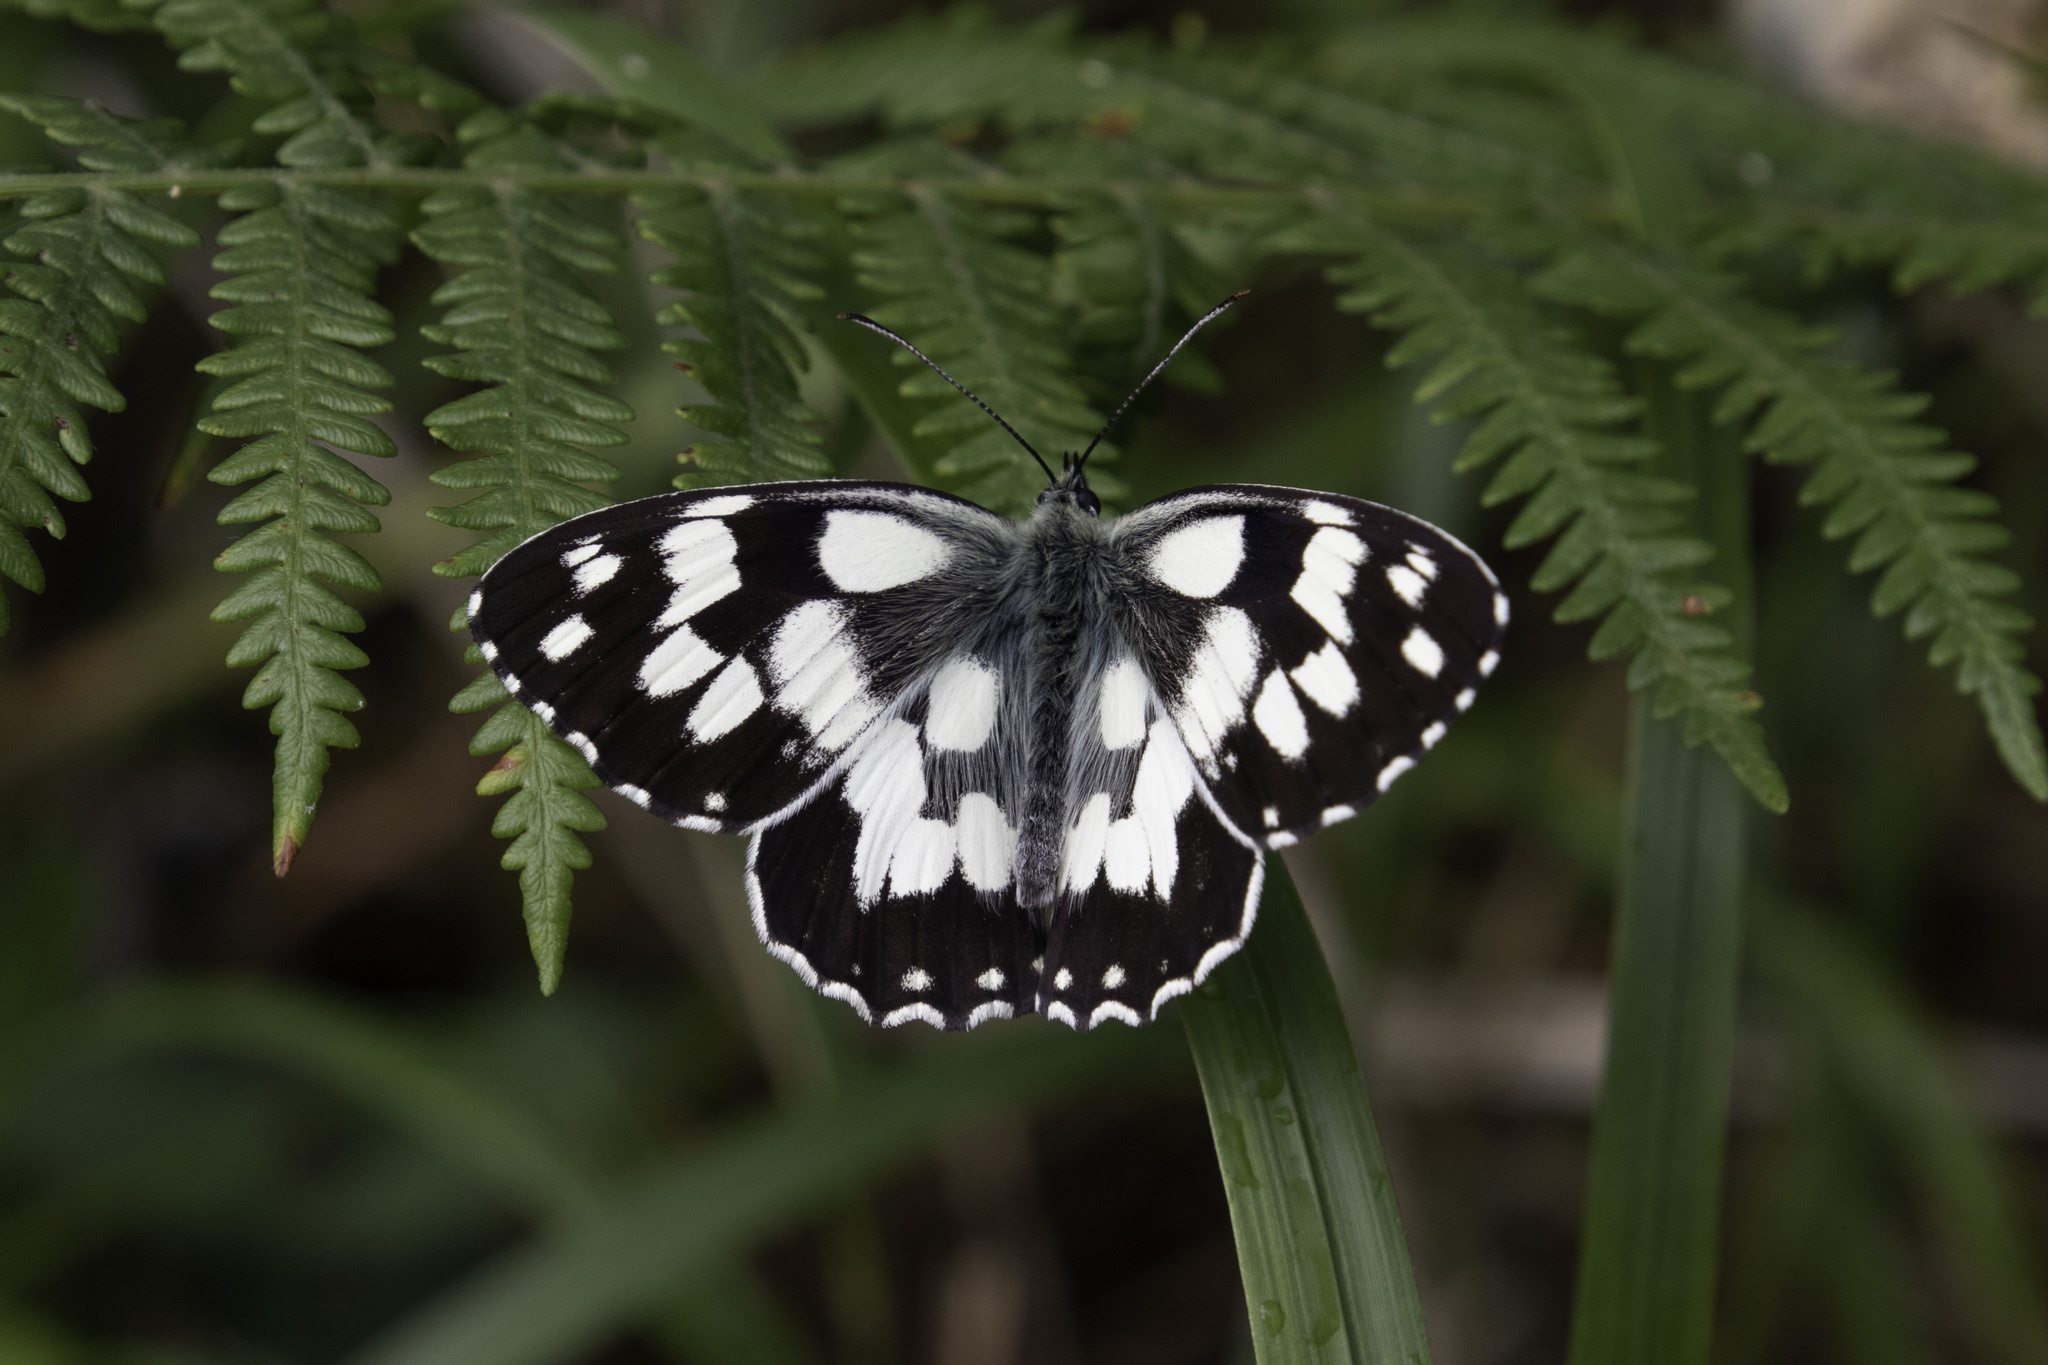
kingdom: Animalia
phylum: Arthropoda
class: Insecta
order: Lepidoptera
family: Nymphalidae
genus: Melanargia
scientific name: Melanargia galathea
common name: Marbled white
